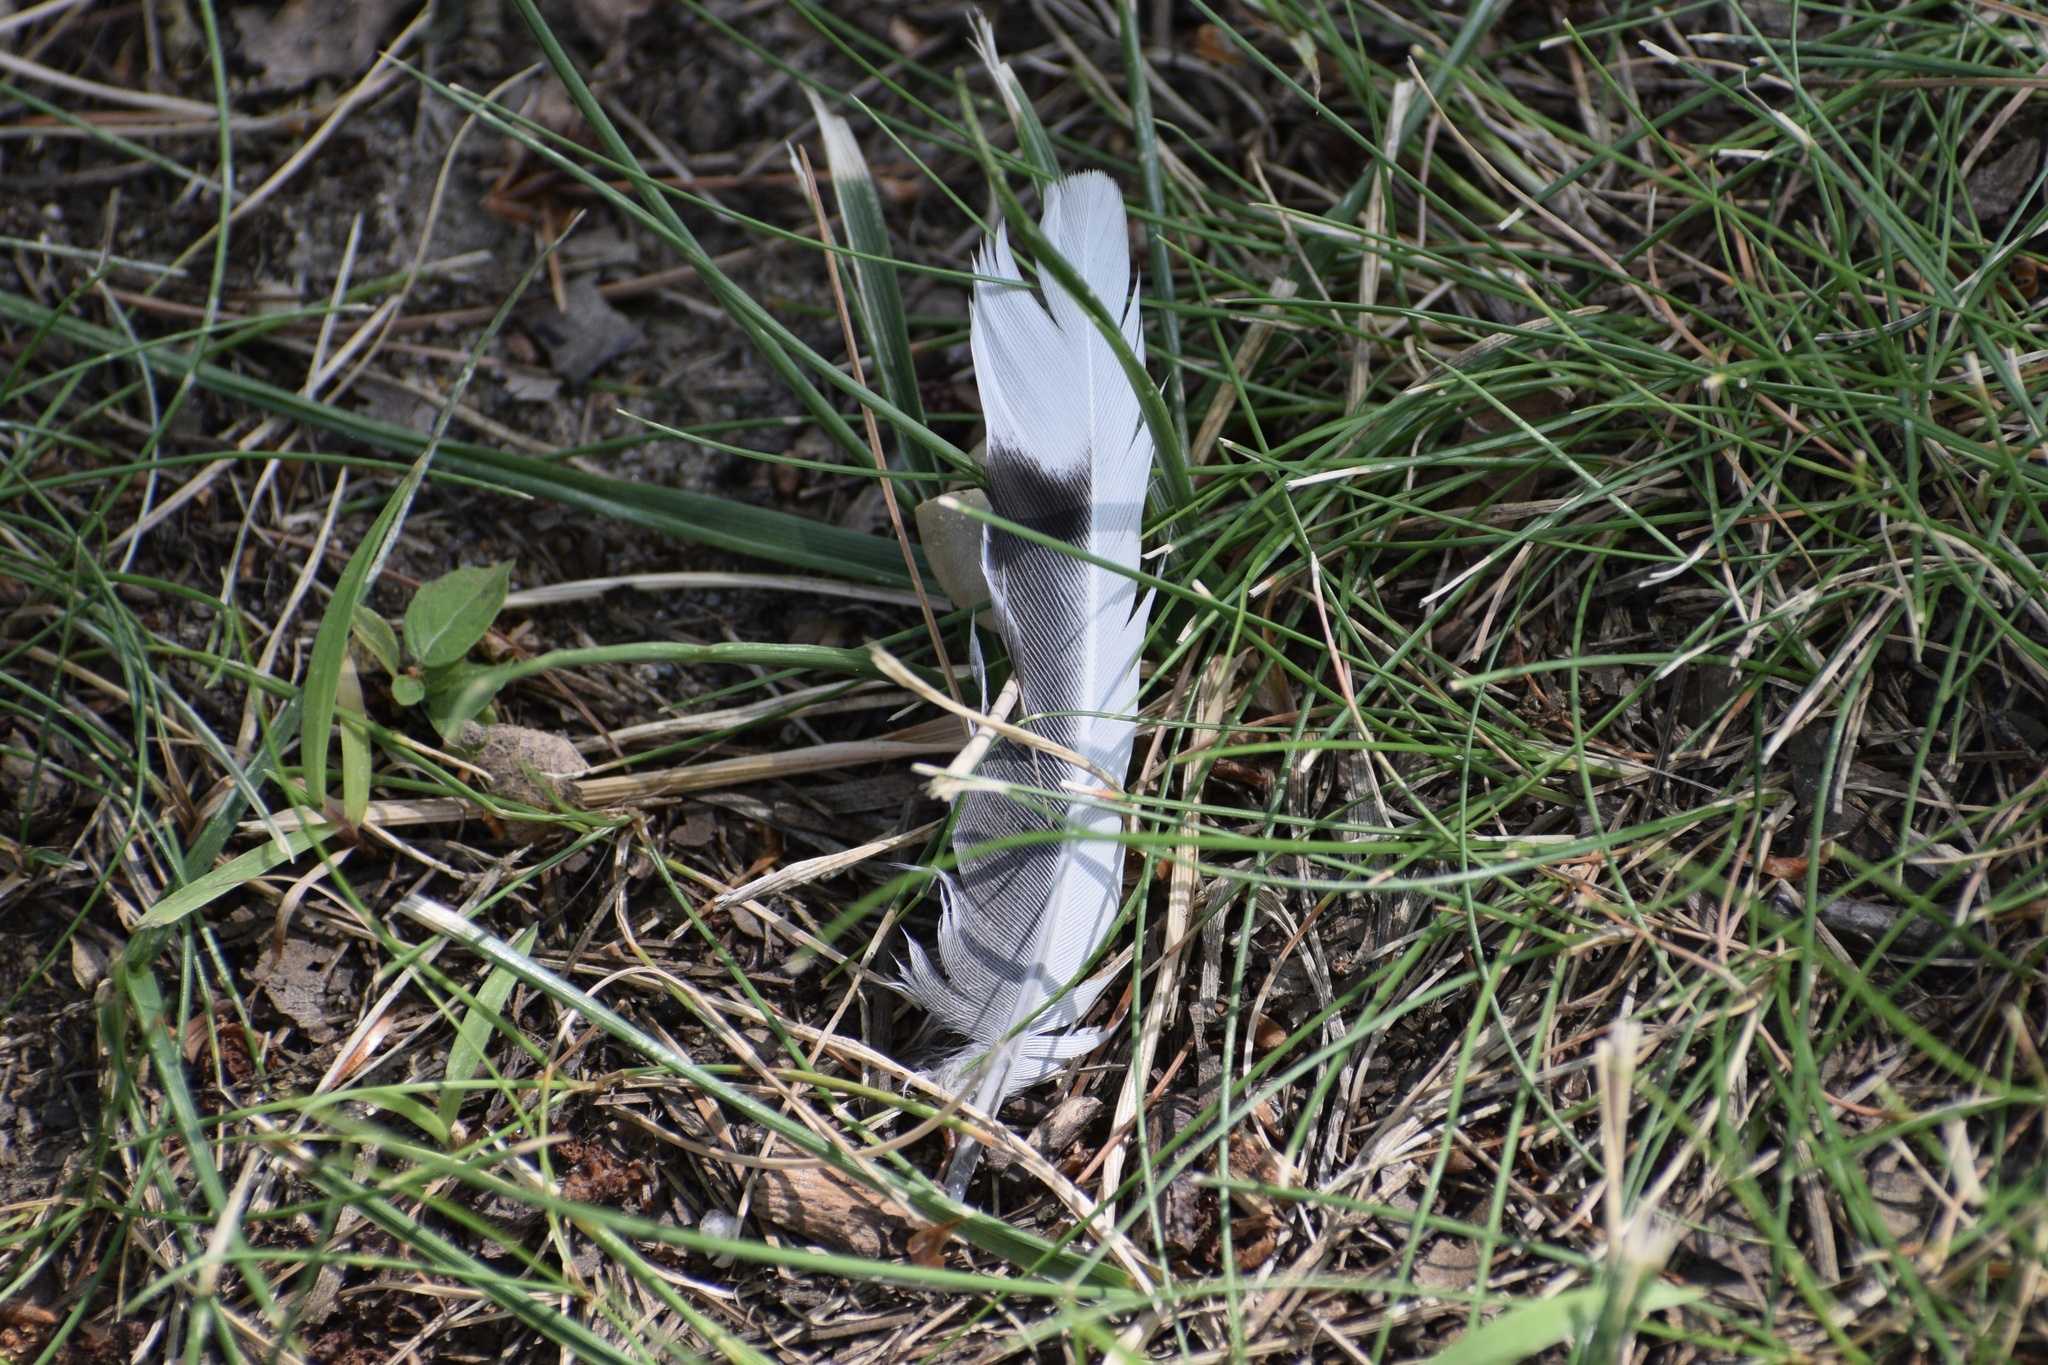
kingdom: Animalia
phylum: Chordata
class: Aves
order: Columbiformes
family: Columbidae
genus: Zenaida
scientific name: Zenaida macroura
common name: Mourning dove
